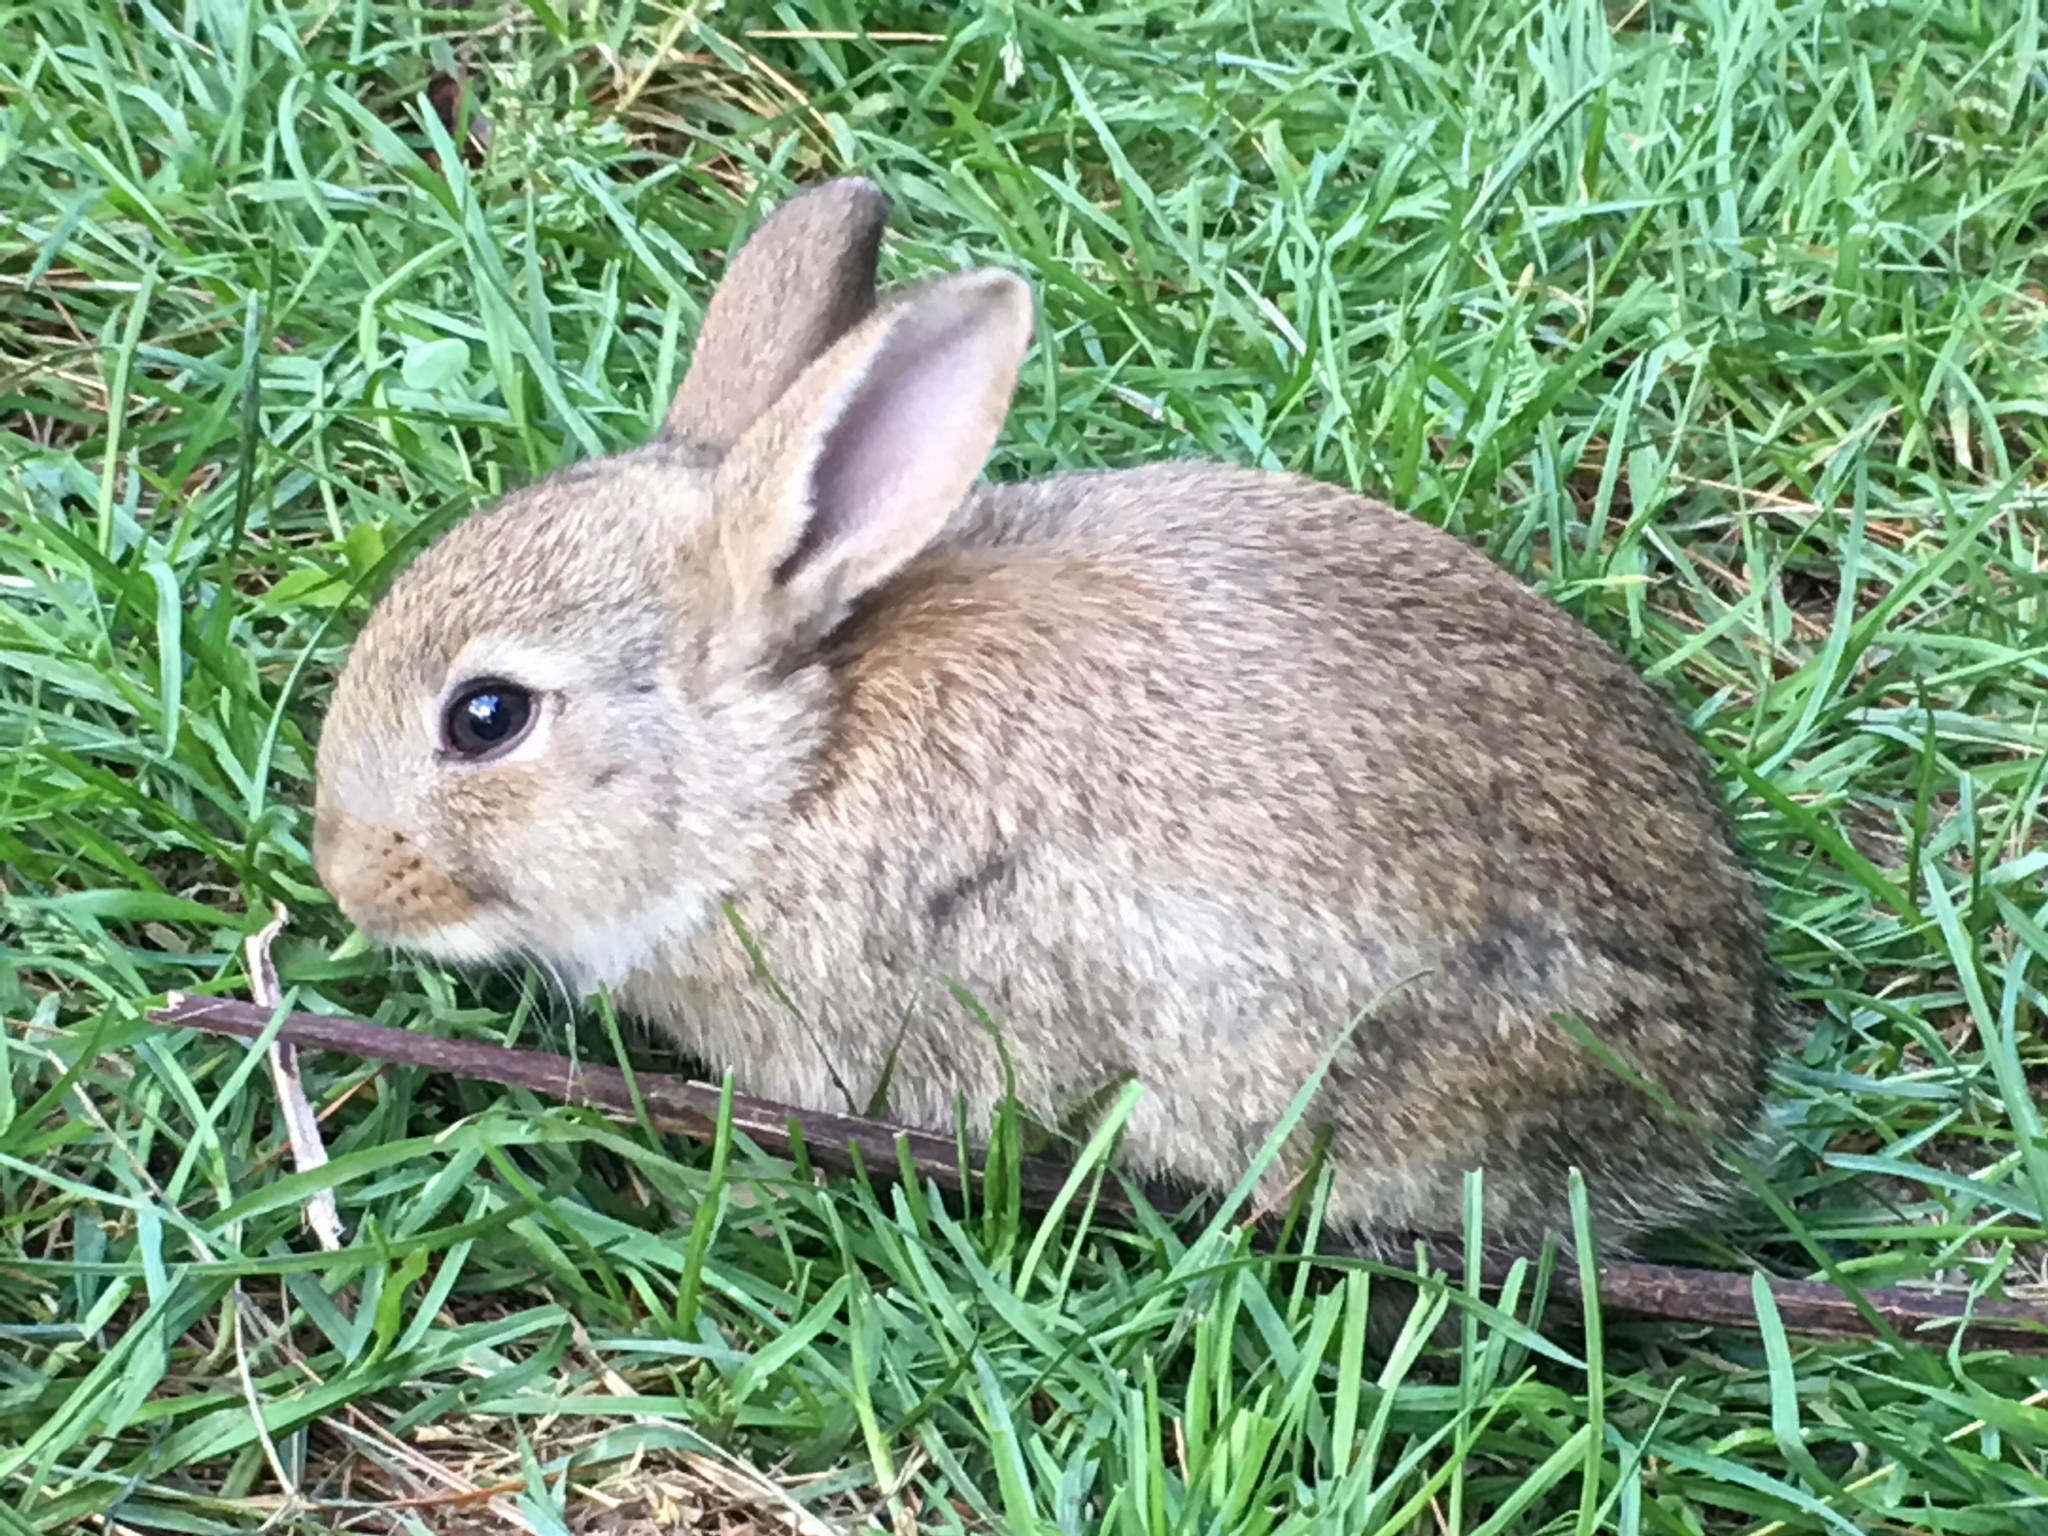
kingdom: Animalia
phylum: Chordata
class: Mammalia
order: Lagomorpha
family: Leporidae
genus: Oryctolagus
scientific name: Oryctolagus cuniculus
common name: European rabbit
